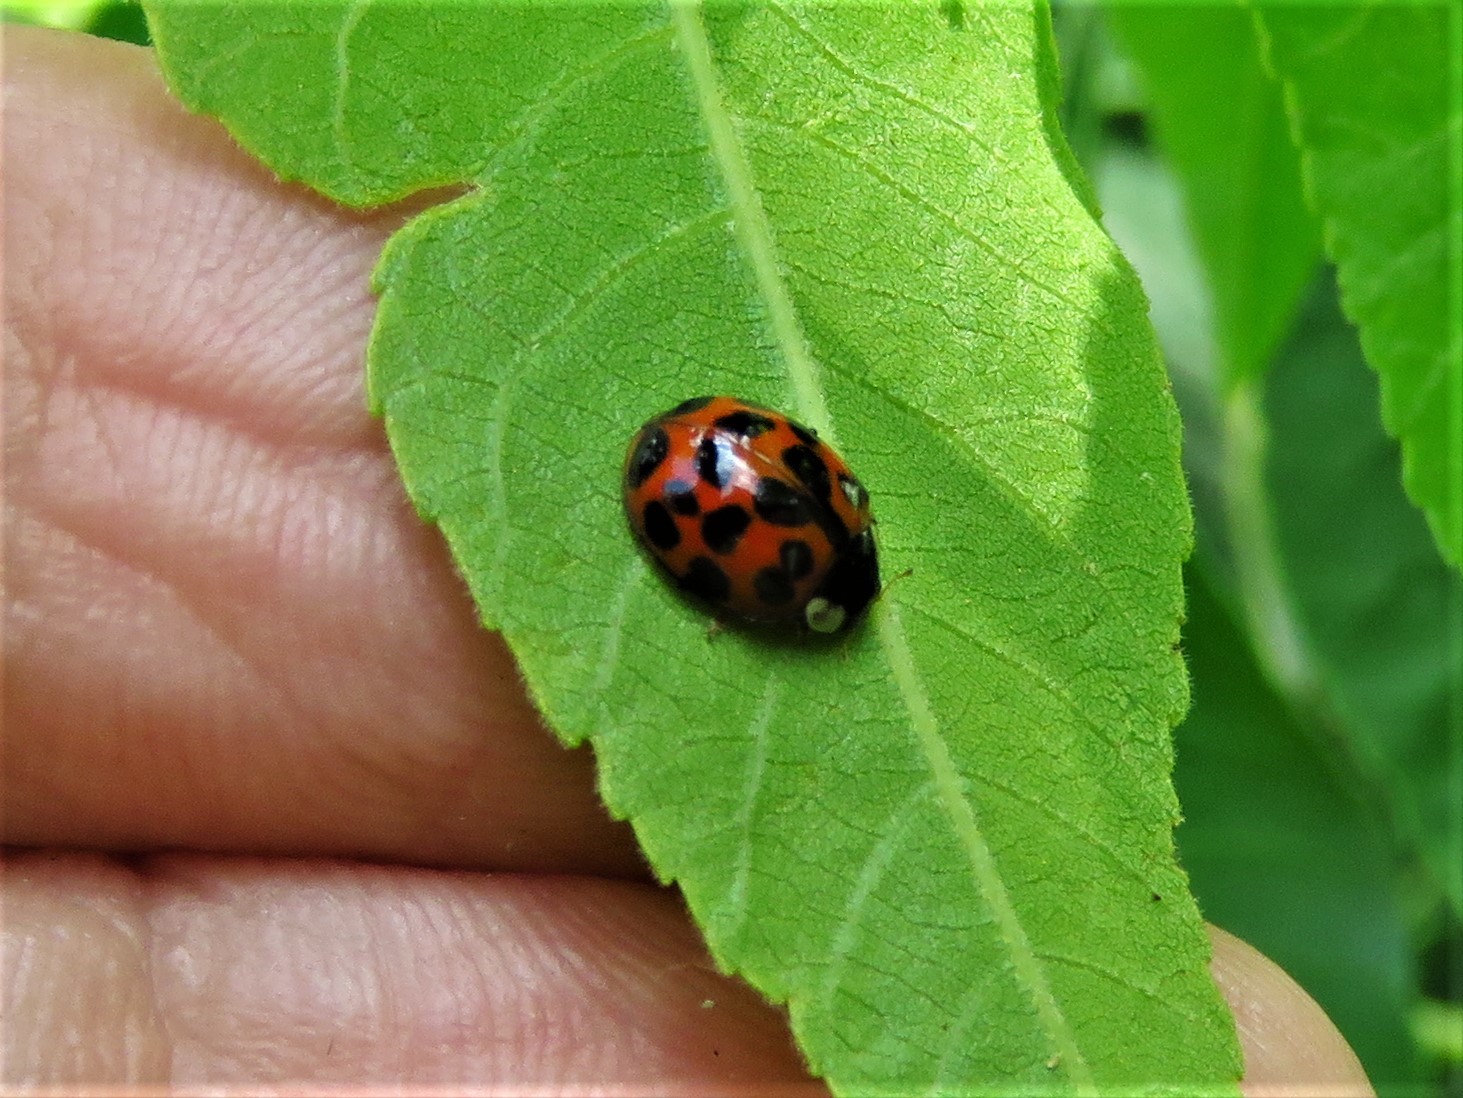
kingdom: Animalia
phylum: Arthropoda
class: Insecta
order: Coleoptera
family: Coccinellidae
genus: Harmonia
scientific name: Harmonia axyridis
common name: Harlequin ladybird
